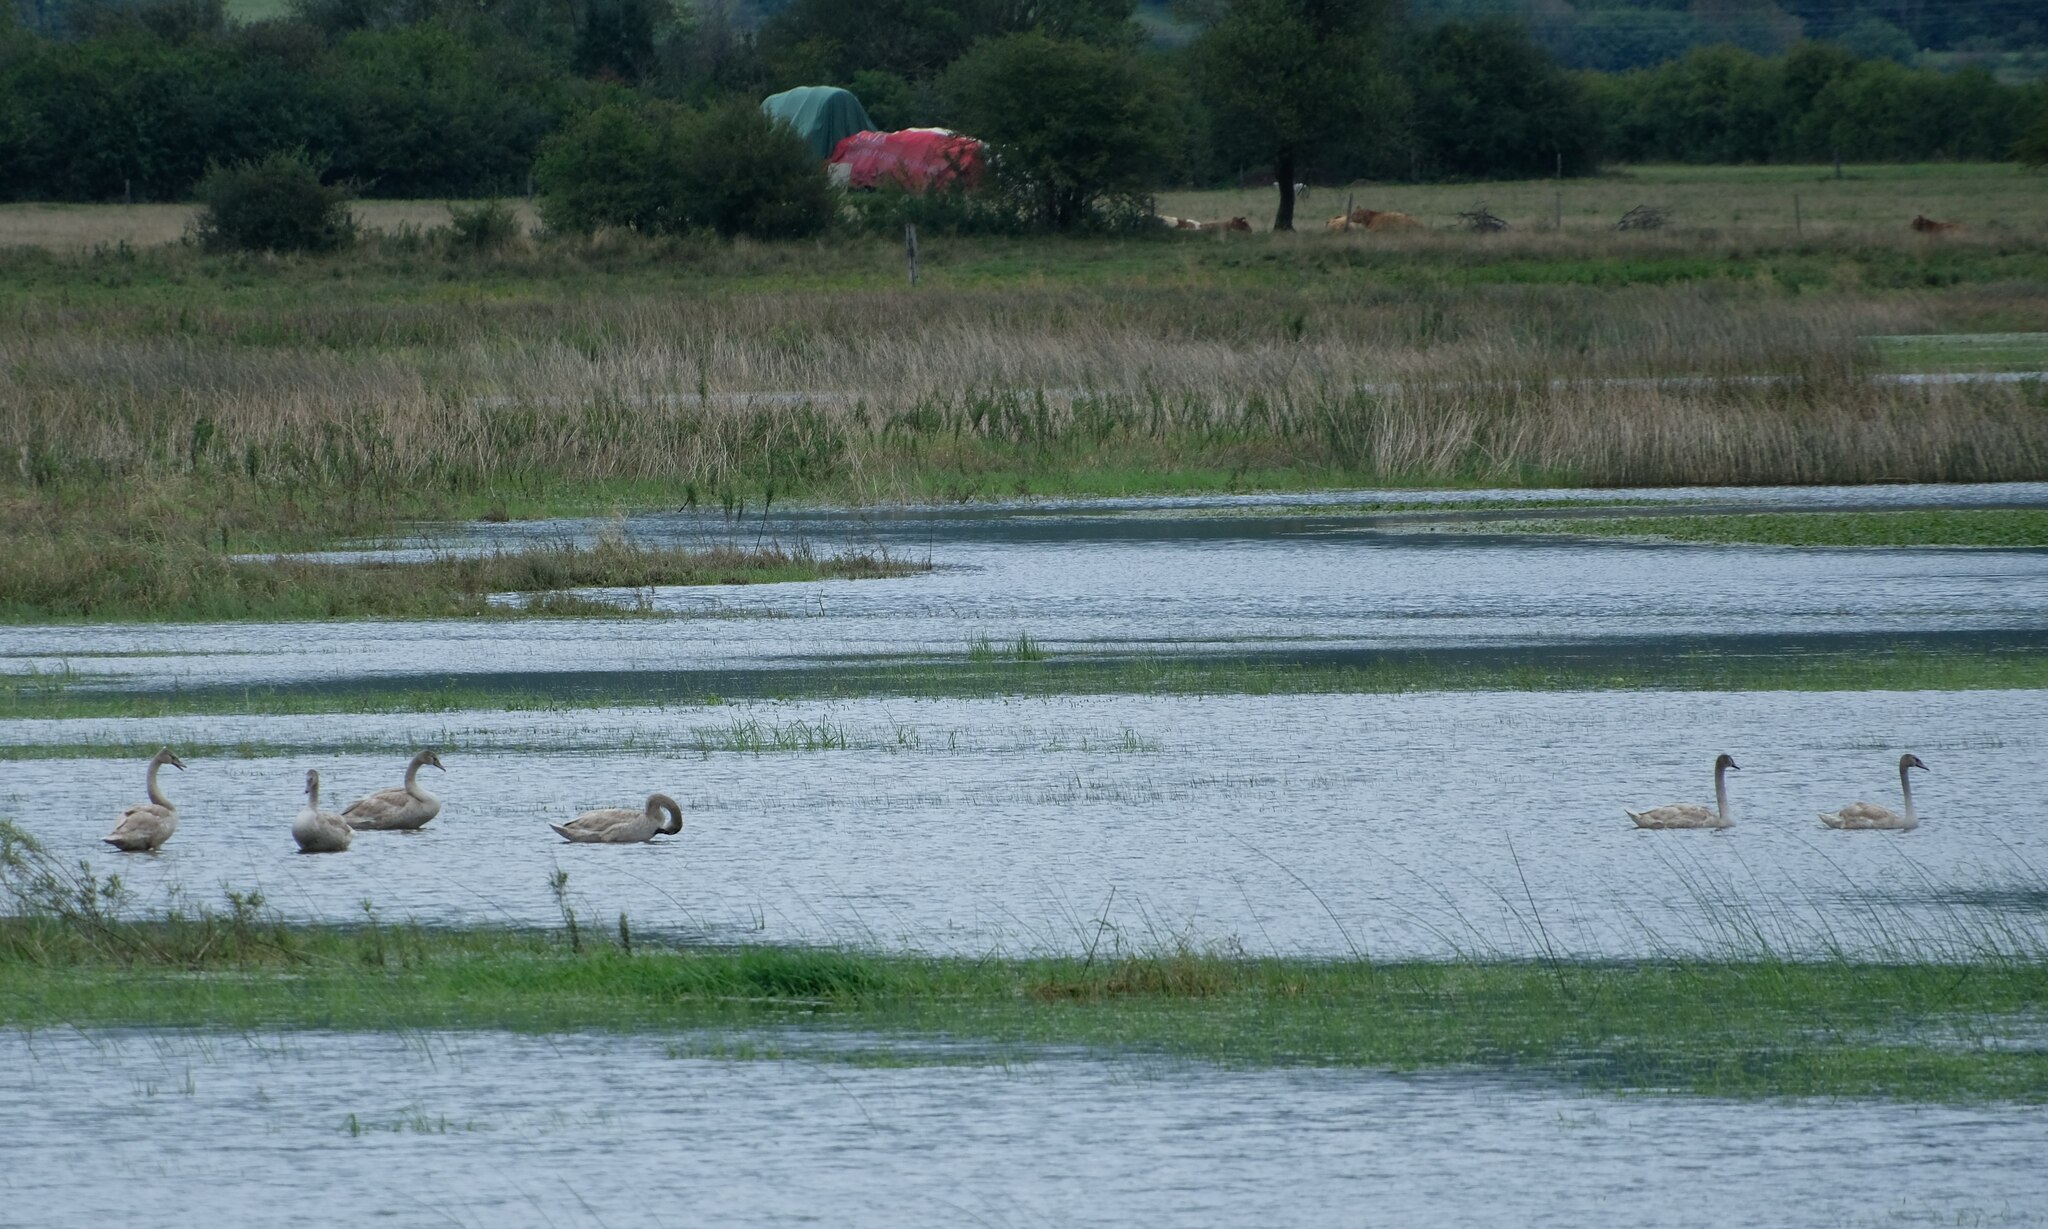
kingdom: Animalia
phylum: Chordata
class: Aves
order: Anseriformes
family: Anatidae
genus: Cygnus
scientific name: Cygnus olor
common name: Mute swan
